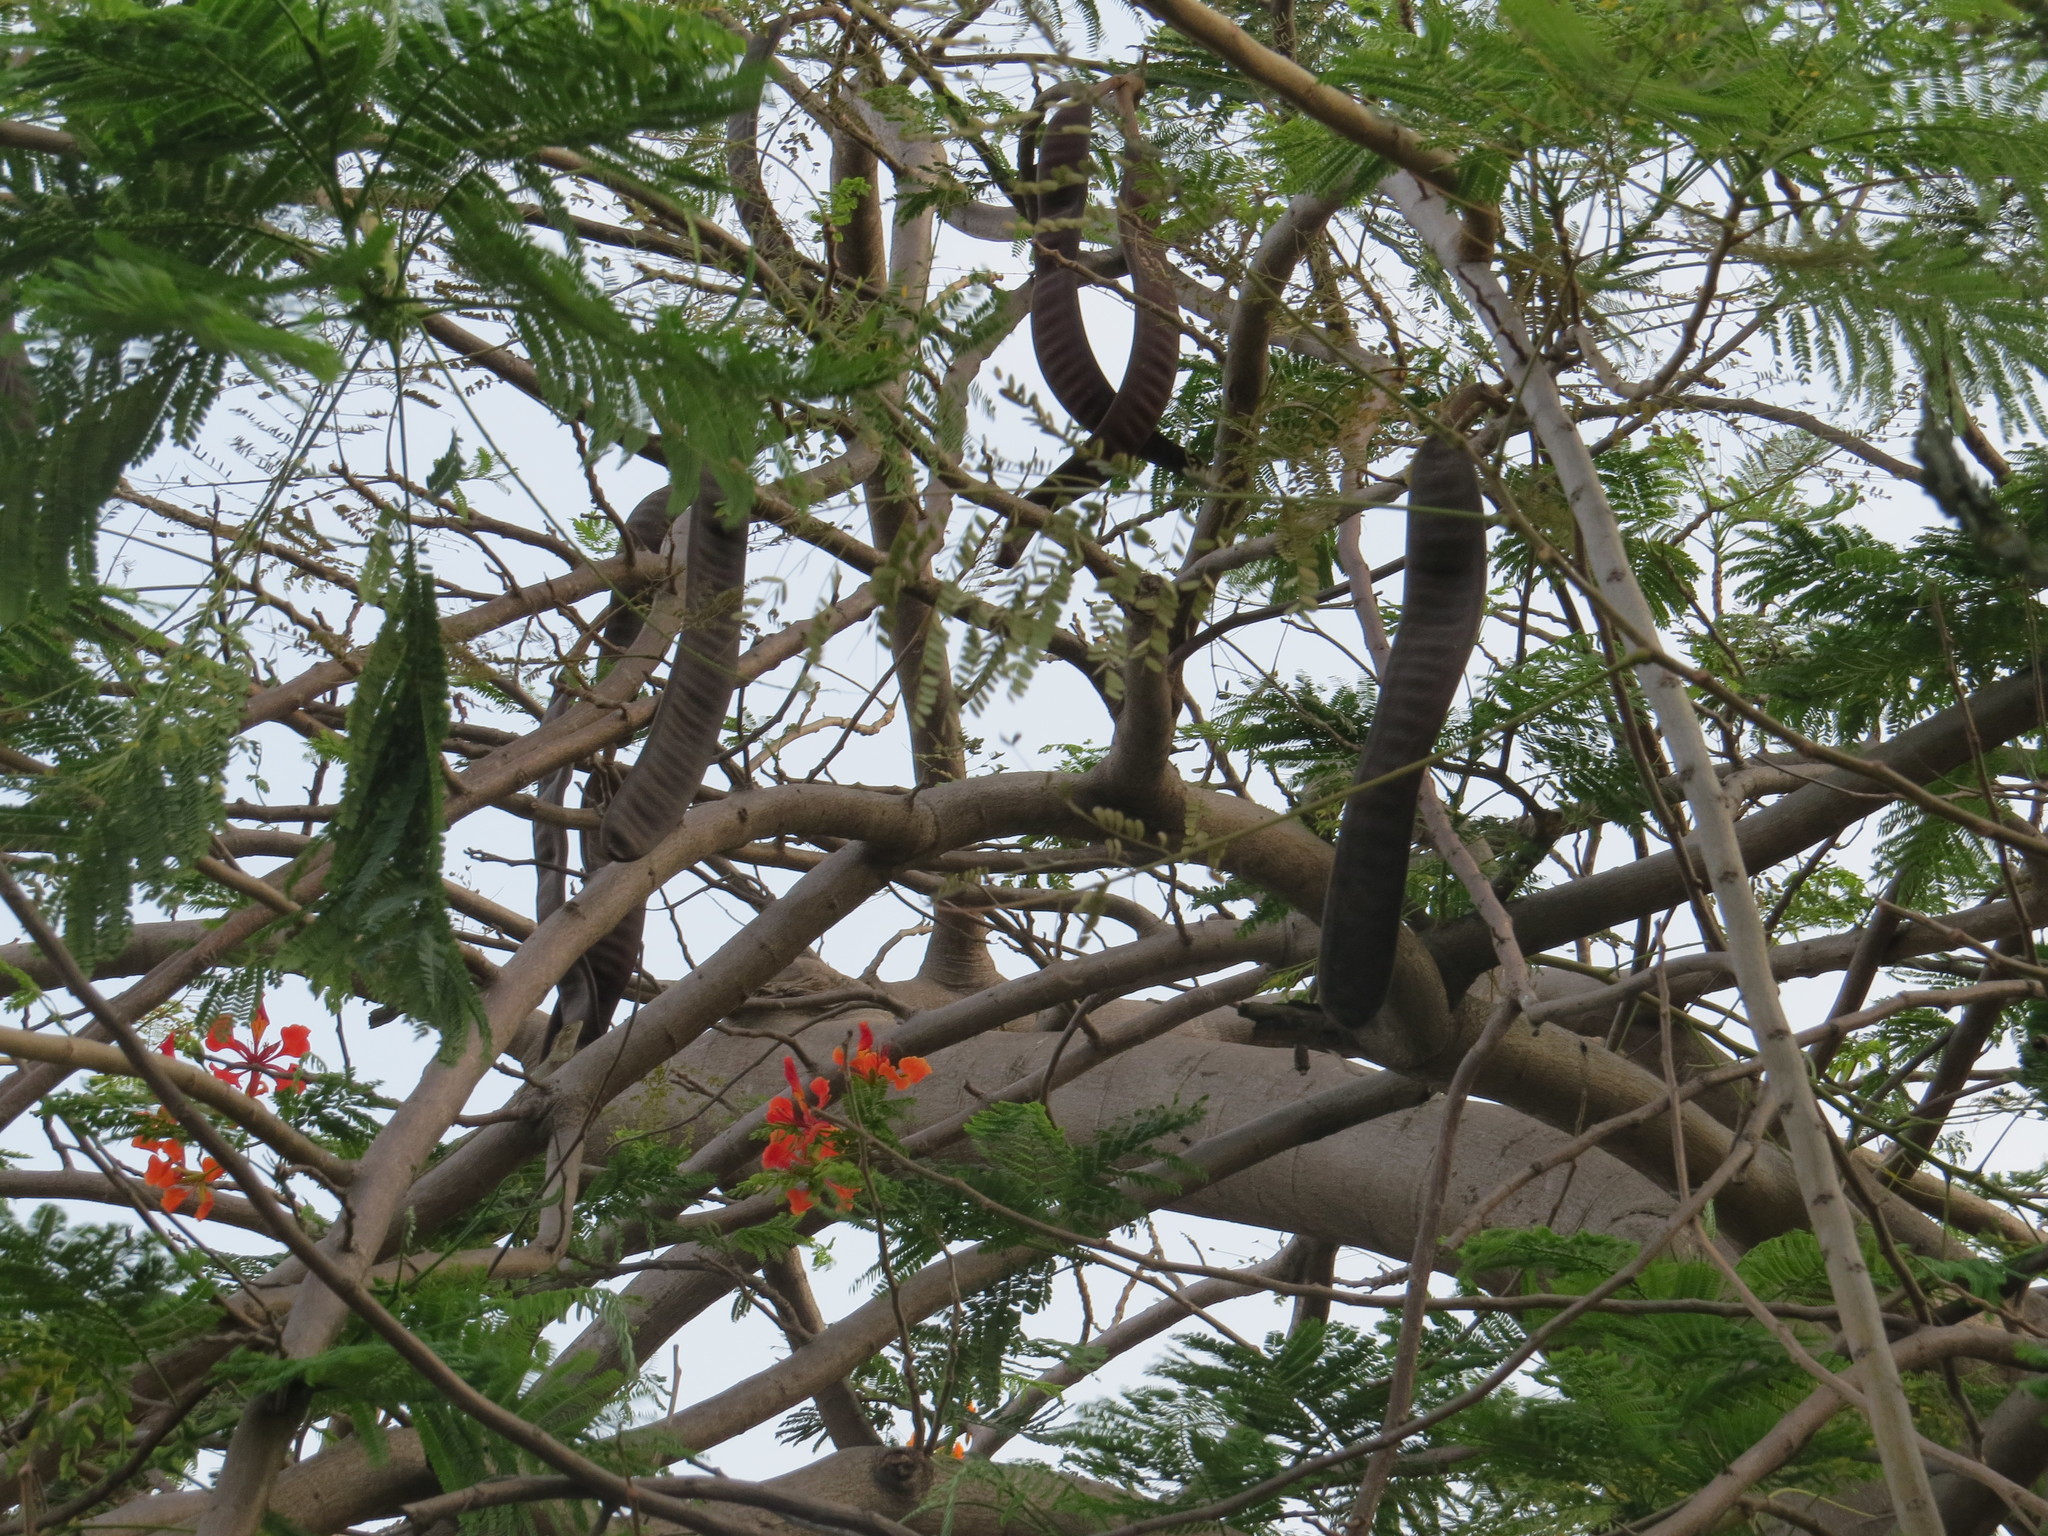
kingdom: Plantae
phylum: Tracheophyta
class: Magnoliopsida
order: Fabales
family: Fabaceae
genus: Delonix
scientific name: Delonix regia
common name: Royal poinciana
